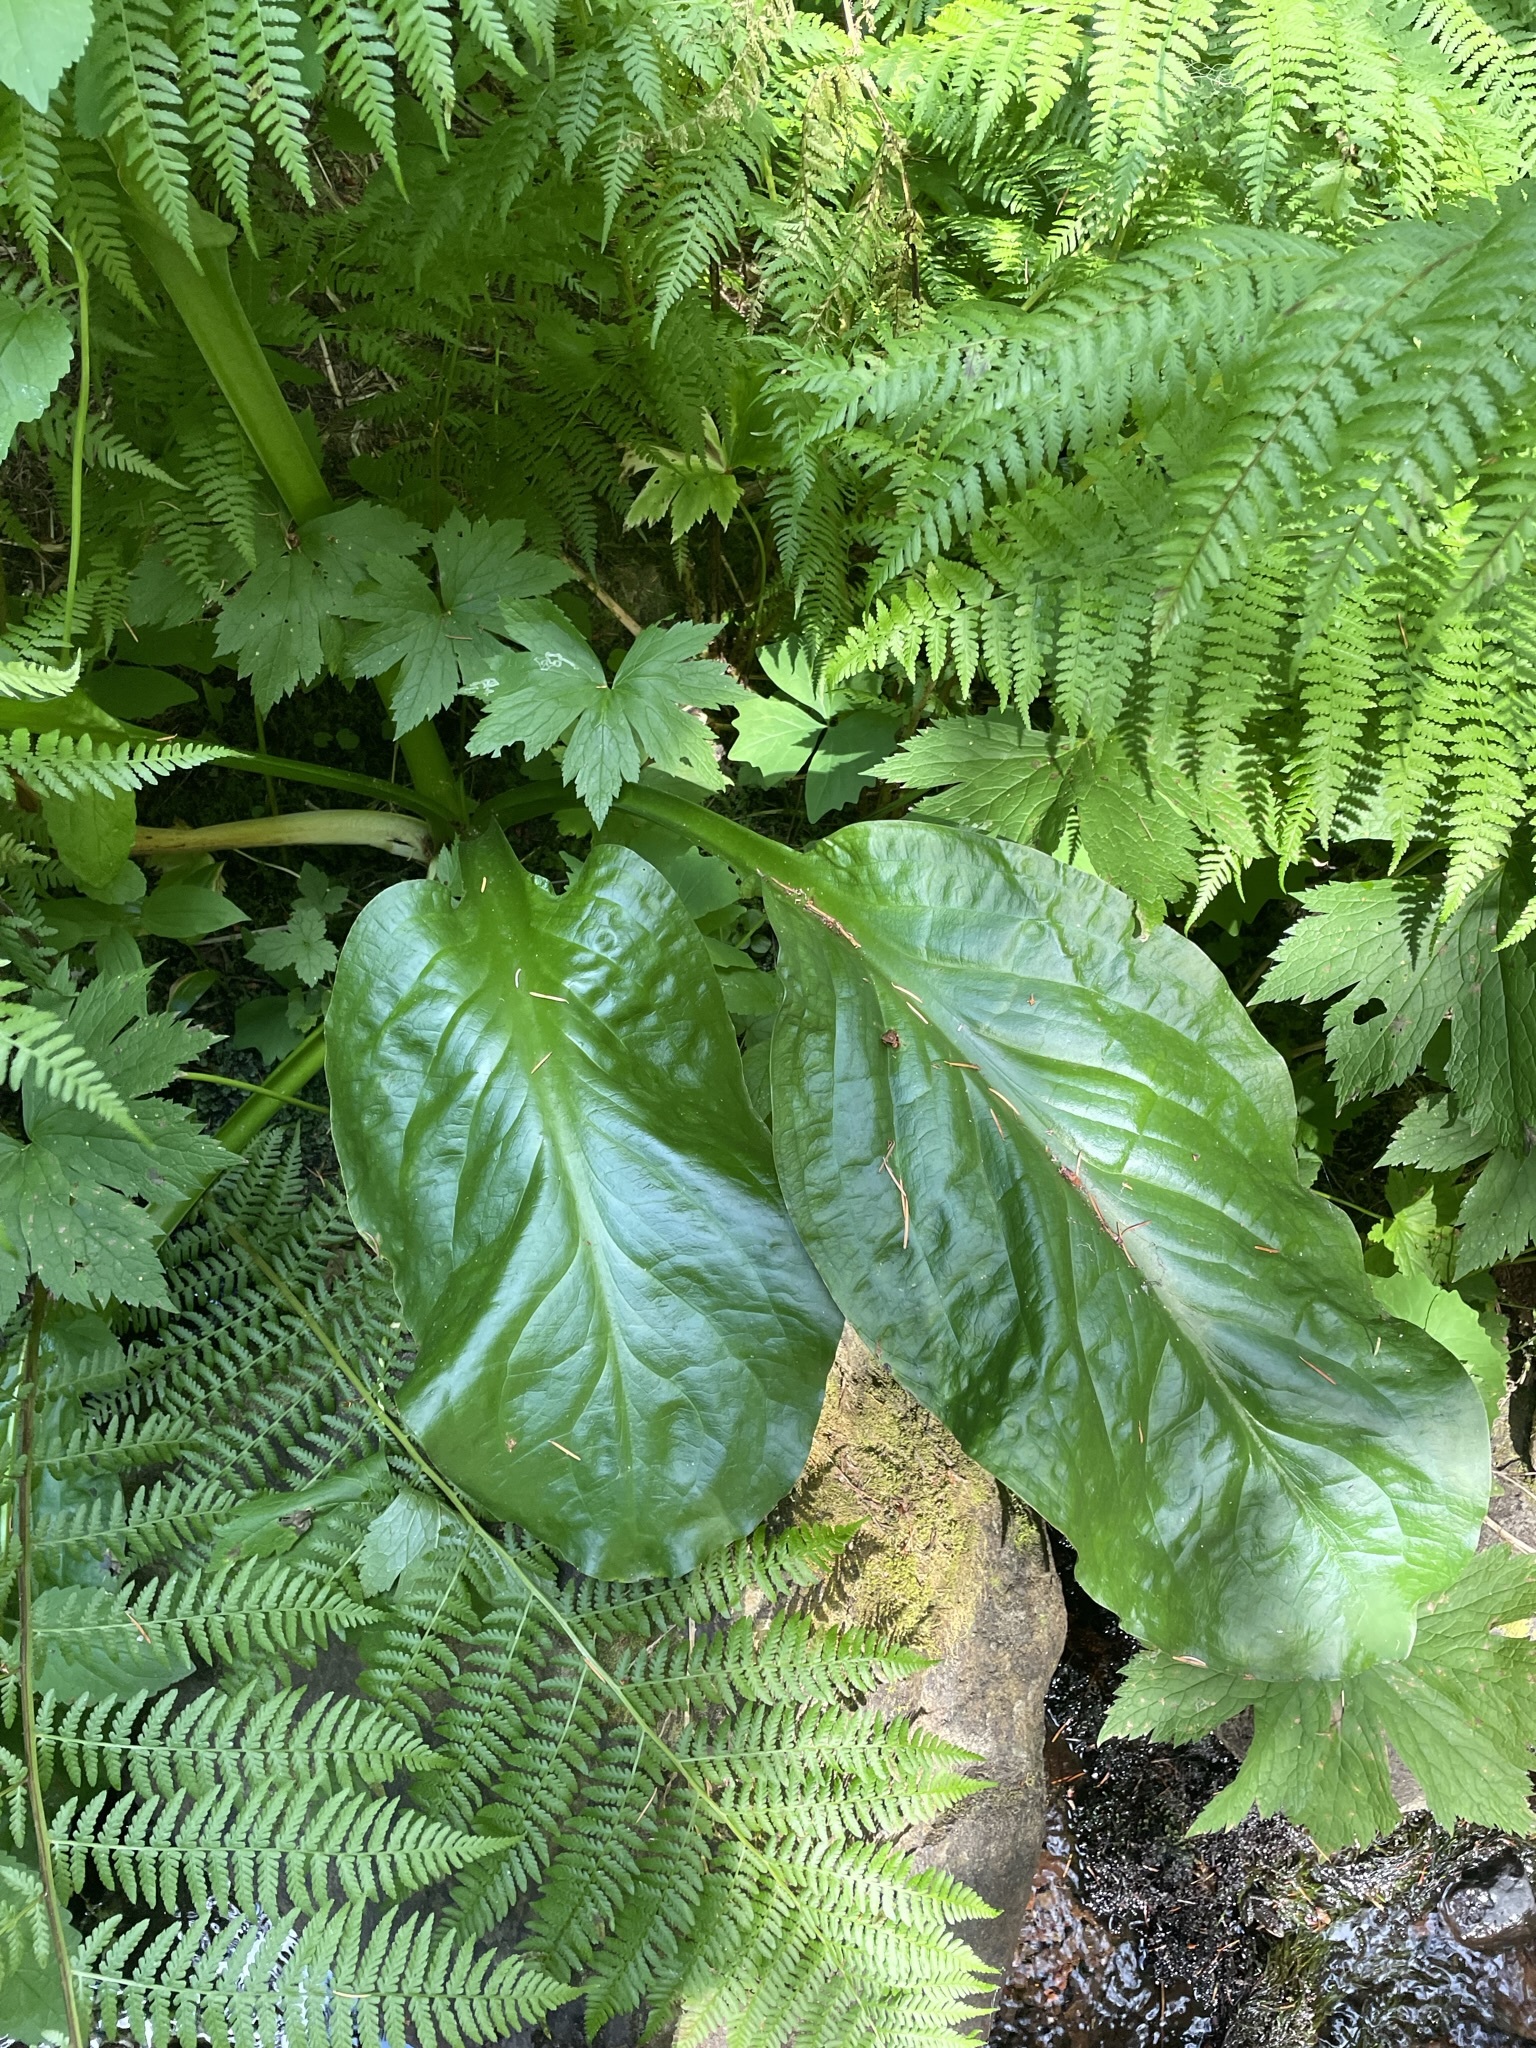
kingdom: Plantae
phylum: Tracheophyta
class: Liliopsida
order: Alismatales
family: Araceae
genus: Lysichiton
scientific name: Lysichiton americanus
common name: American skunk cabbage
